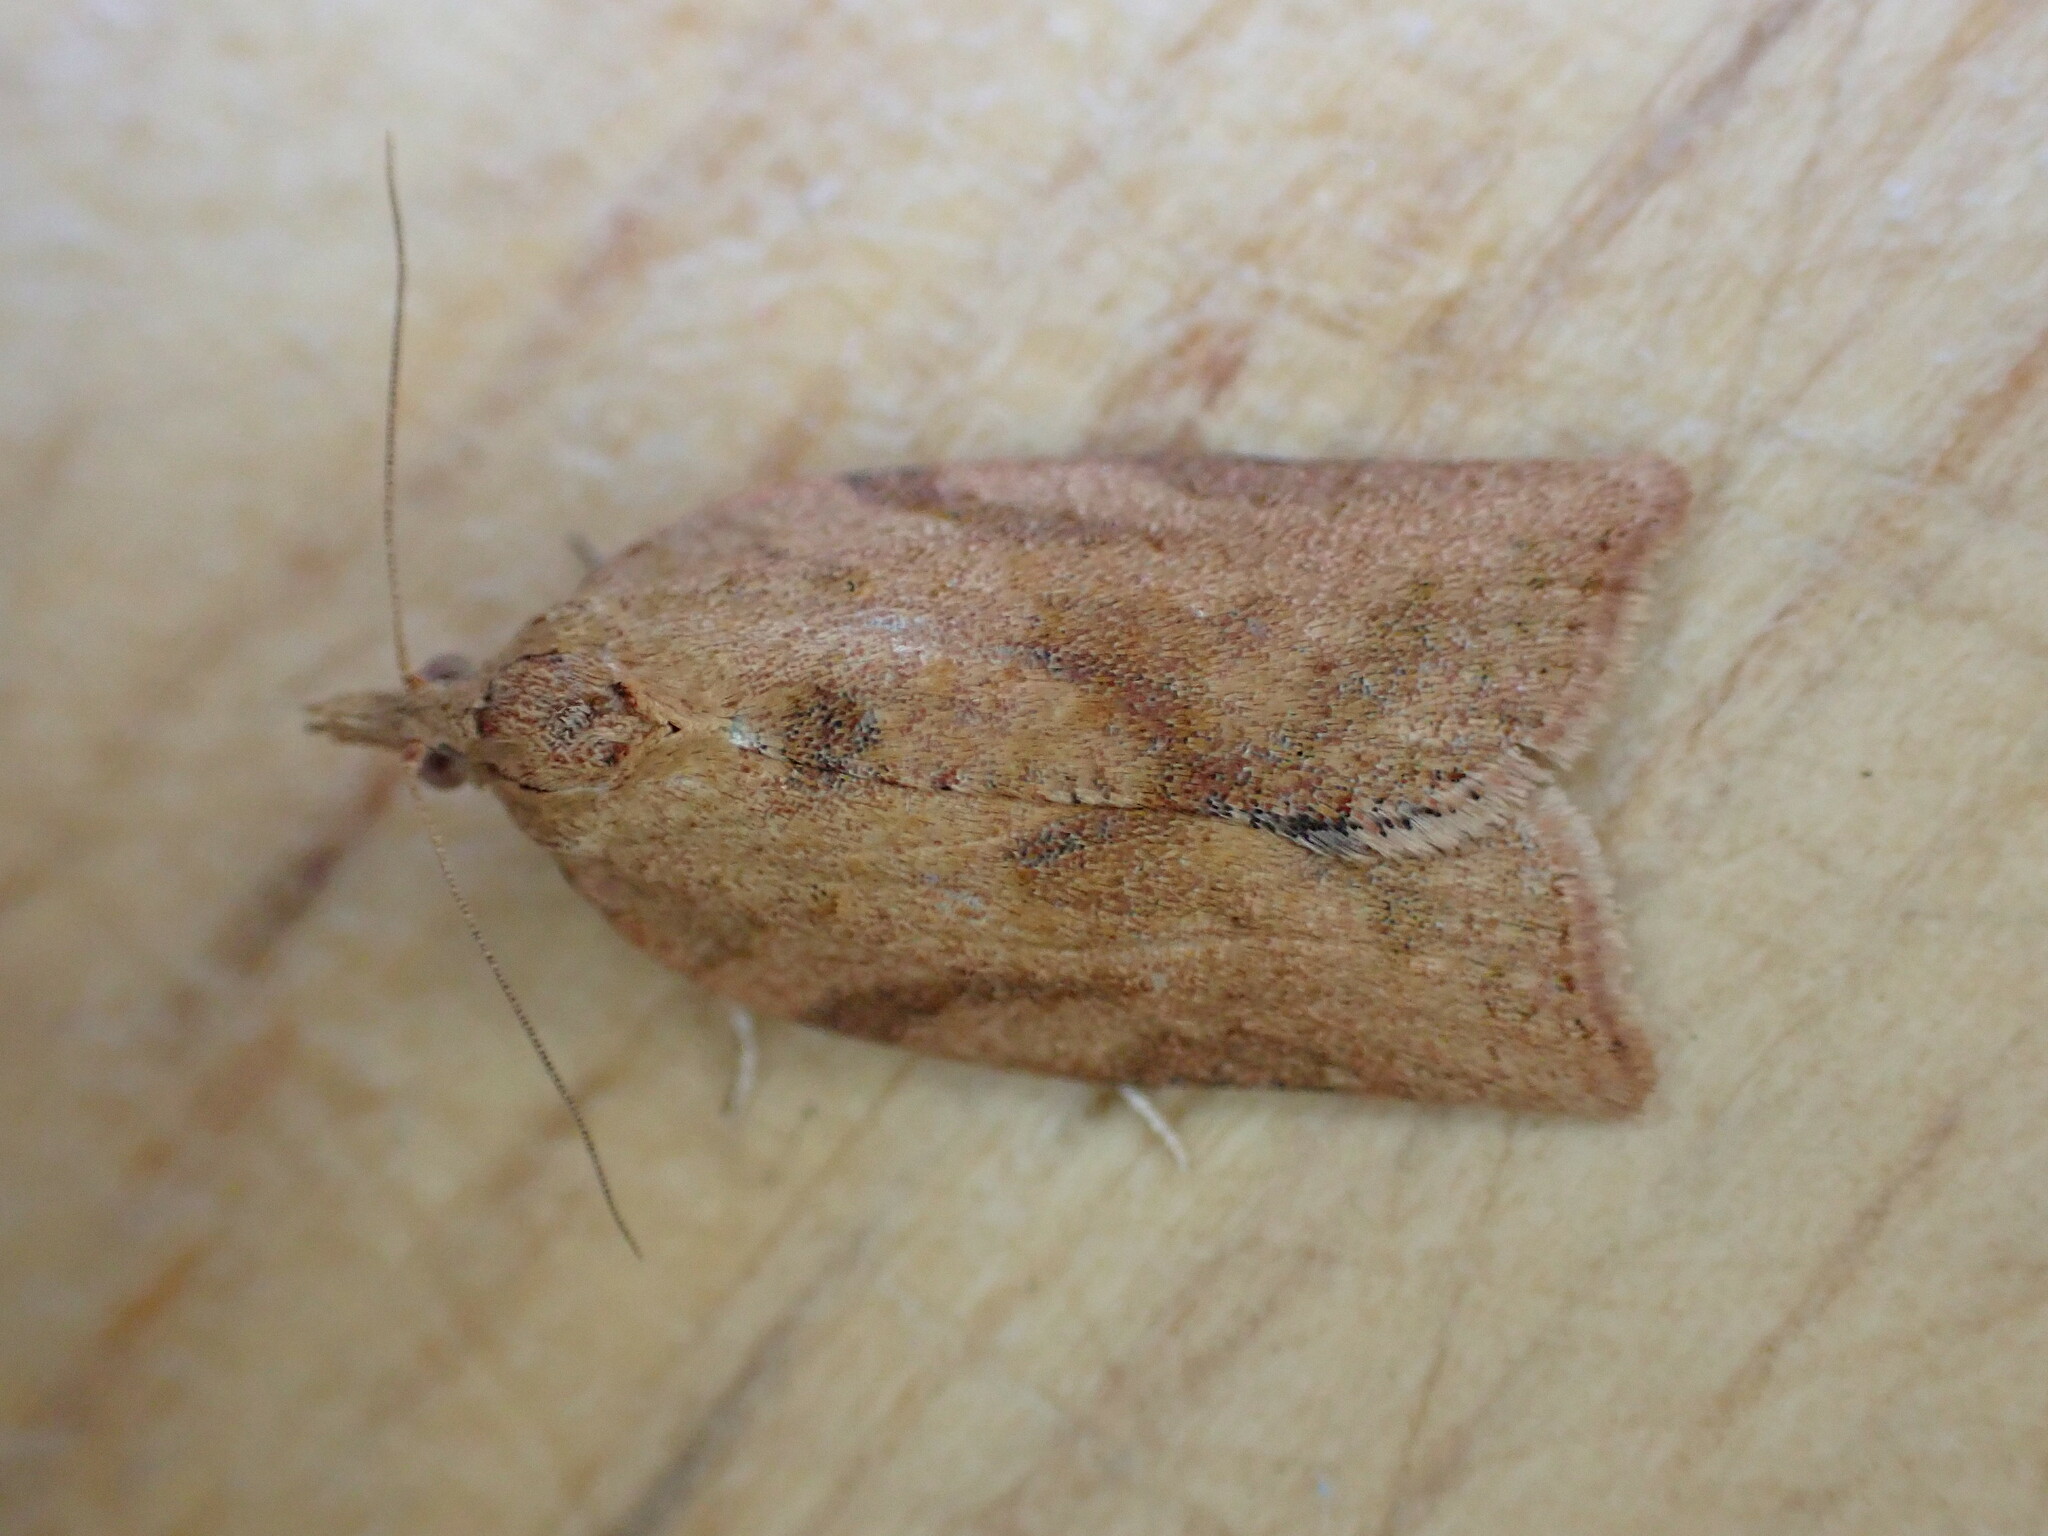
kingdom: Animalia
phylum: Arthropoda
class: Insecta
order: Lepidoptera
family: Tortricidae
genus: Epiphyas
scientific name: Epiphyas postvittana
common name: Light brown apple moth
